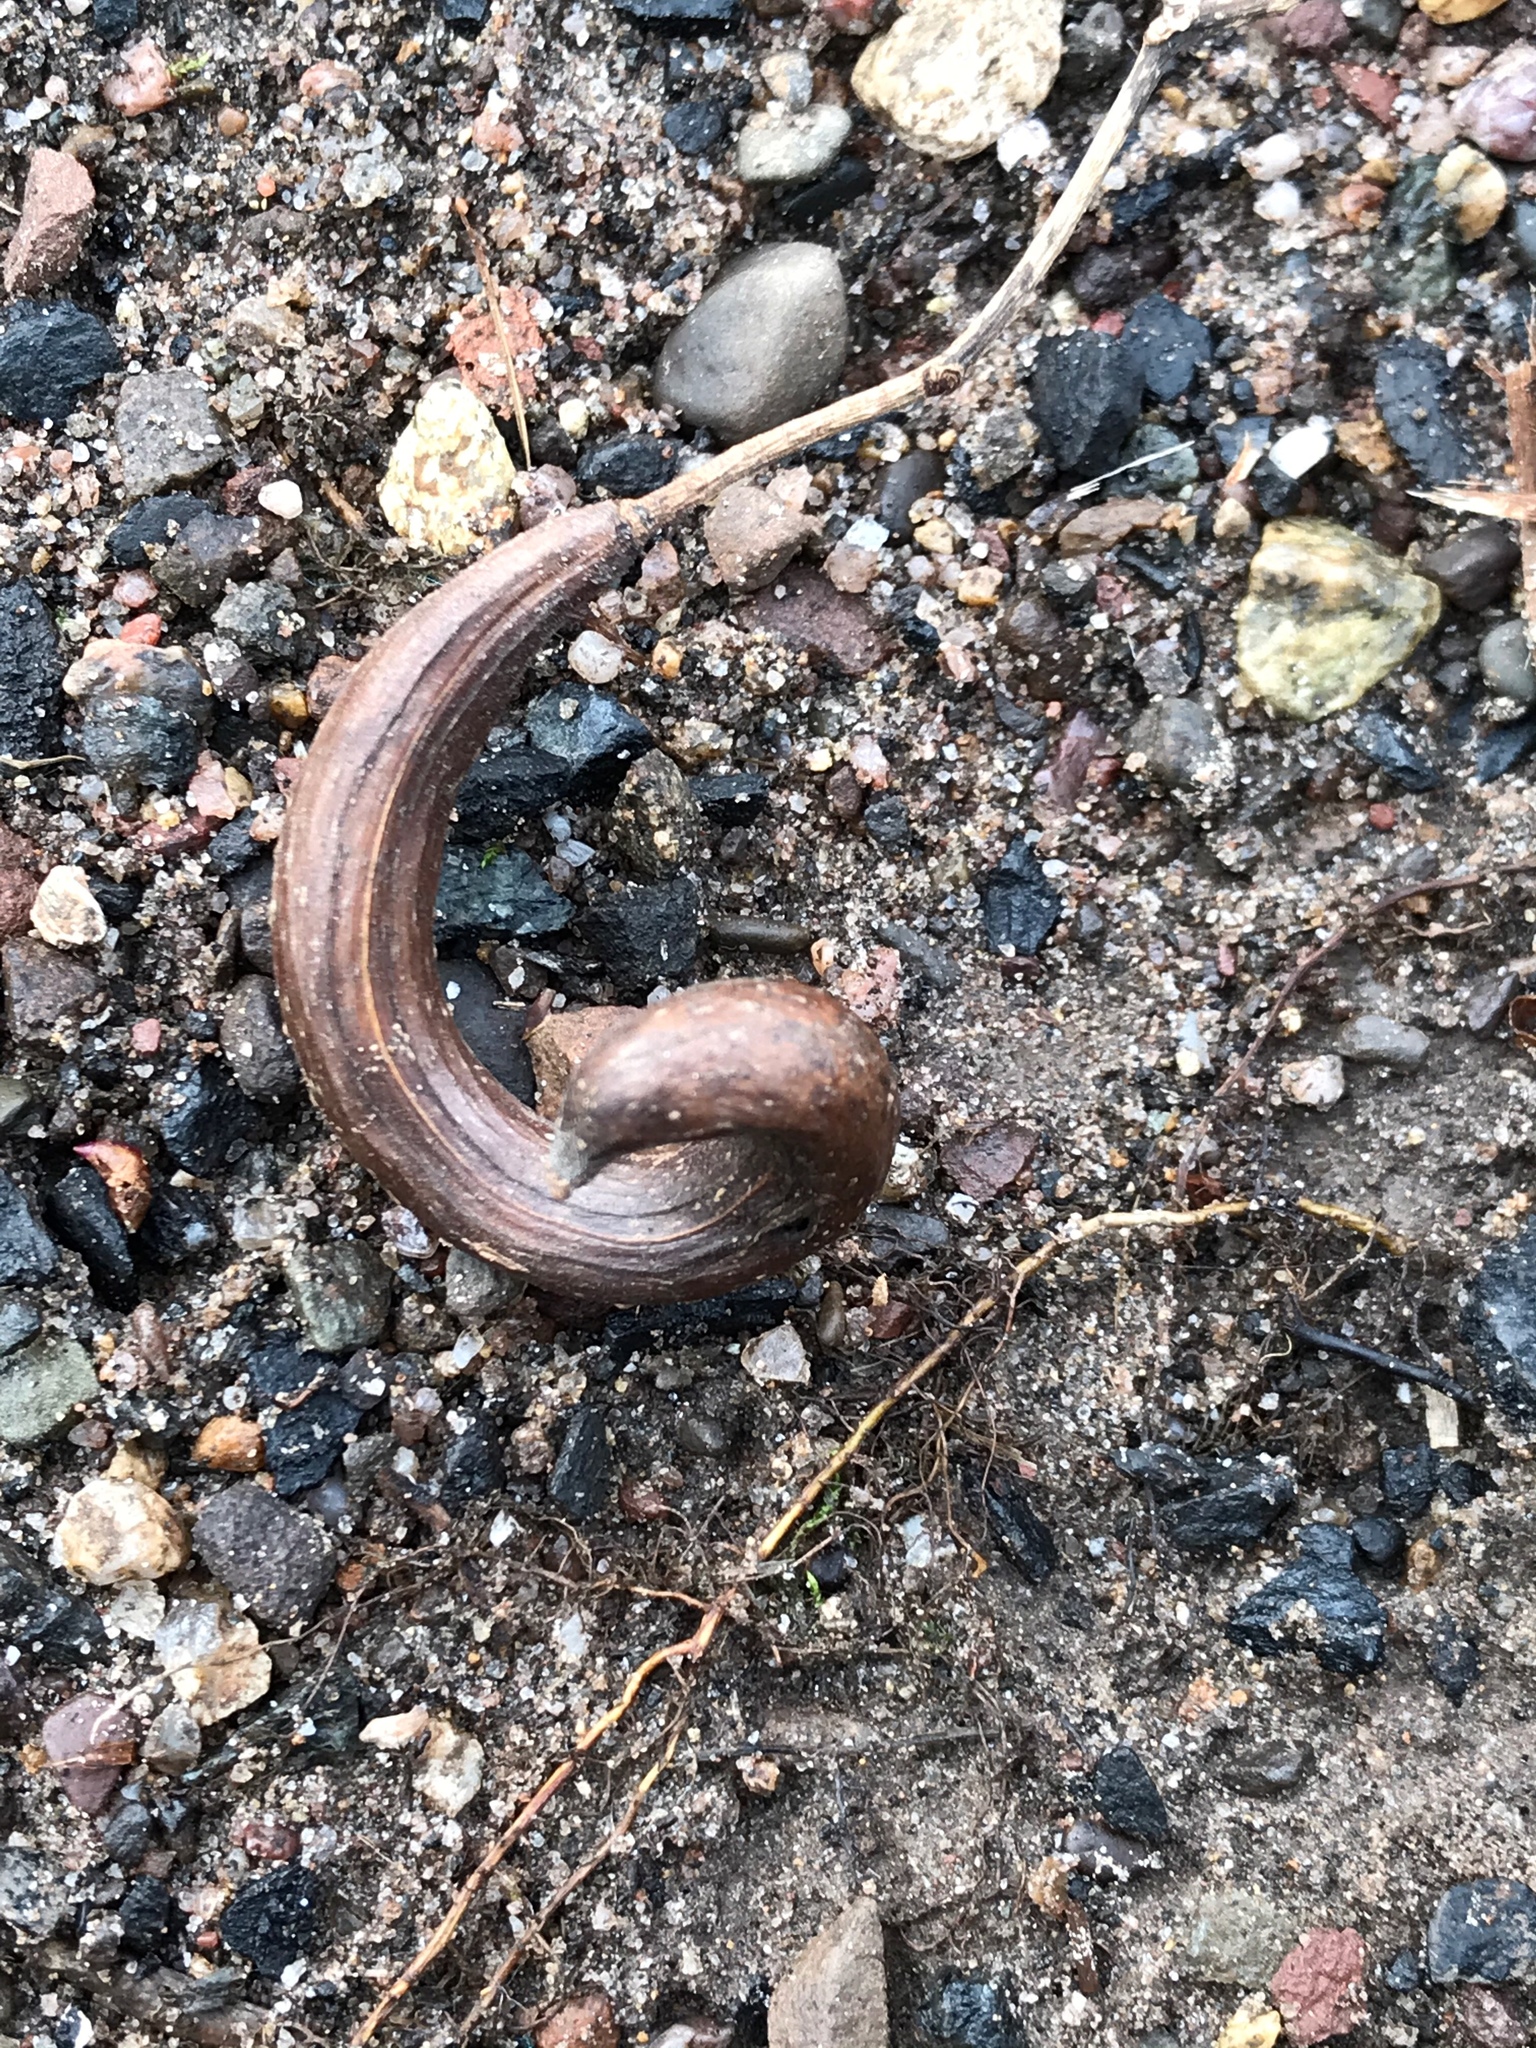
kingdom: Plantae
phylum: Tracheophyta
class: Magnoliopsida
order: Lamiales
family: Bignoniaceae
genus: Catalpa
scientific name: Catalpa speciosa
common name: Northern catalpa
